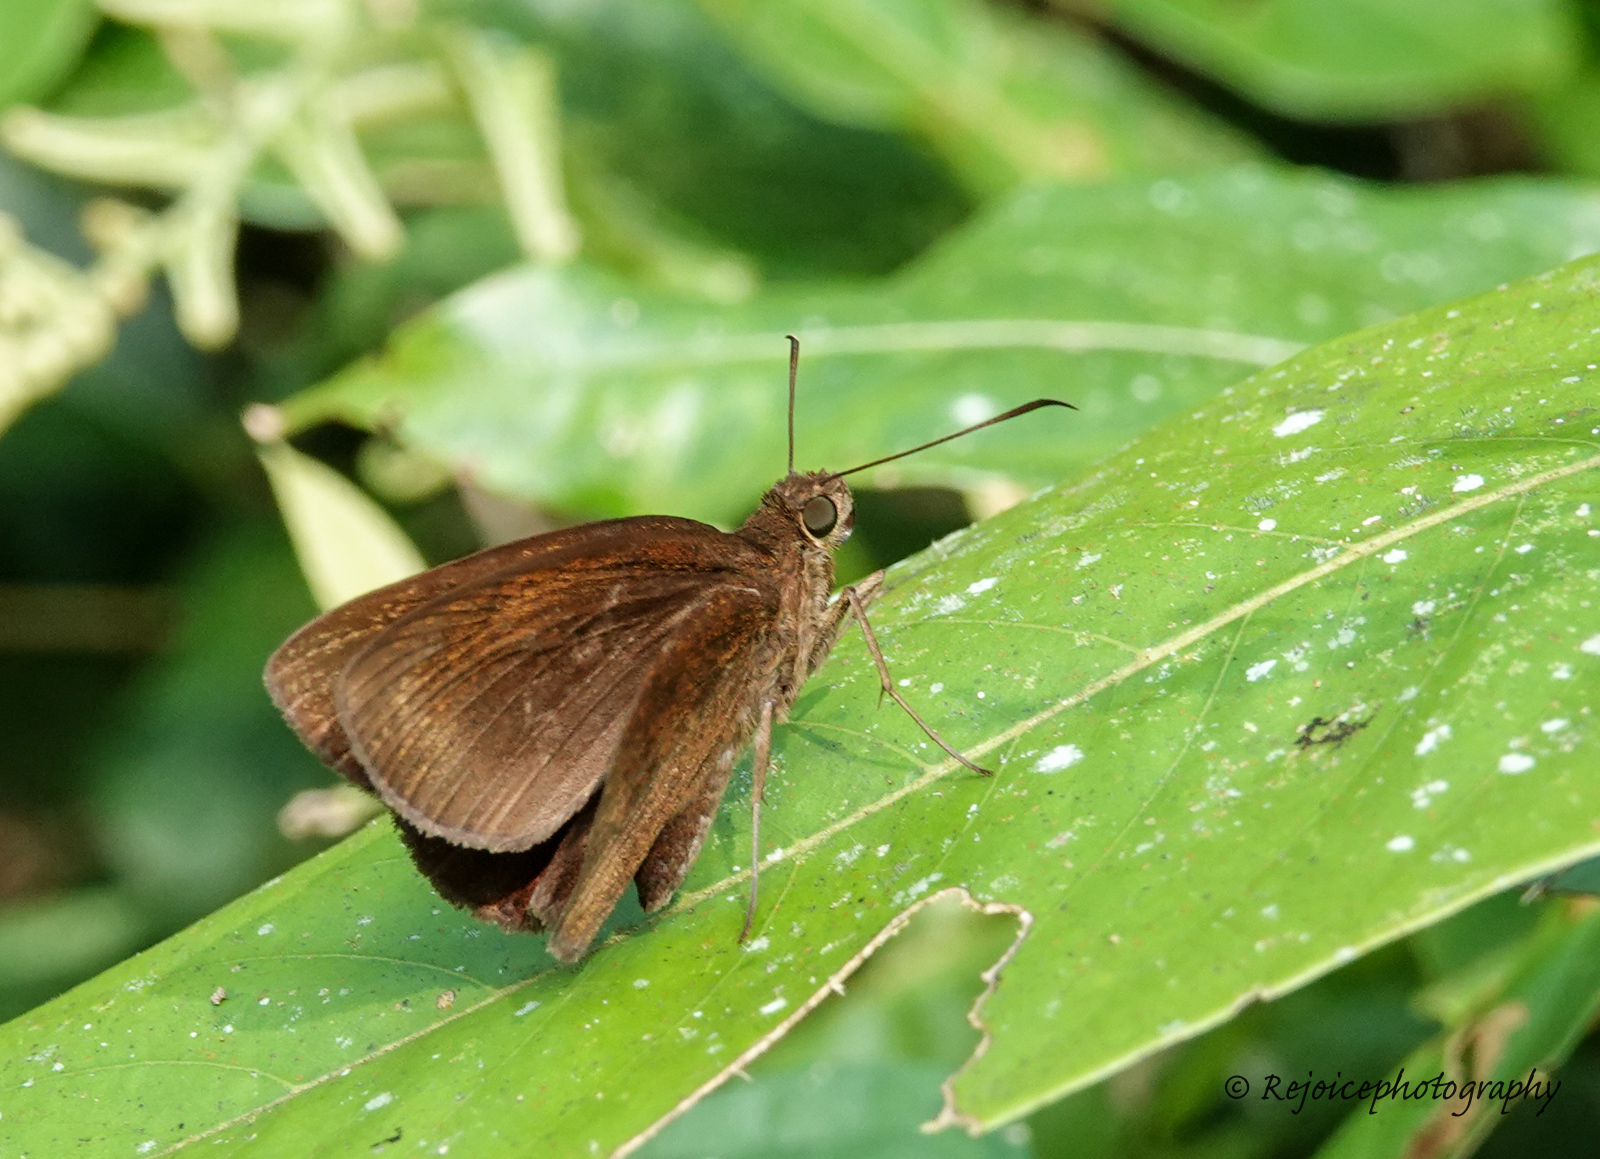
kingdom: Animalia
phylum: Arthropoda
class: Insecta
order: Lepidoptera
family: Hesperiidae
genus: Ancistroides
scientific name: Ancistroides nigrita
